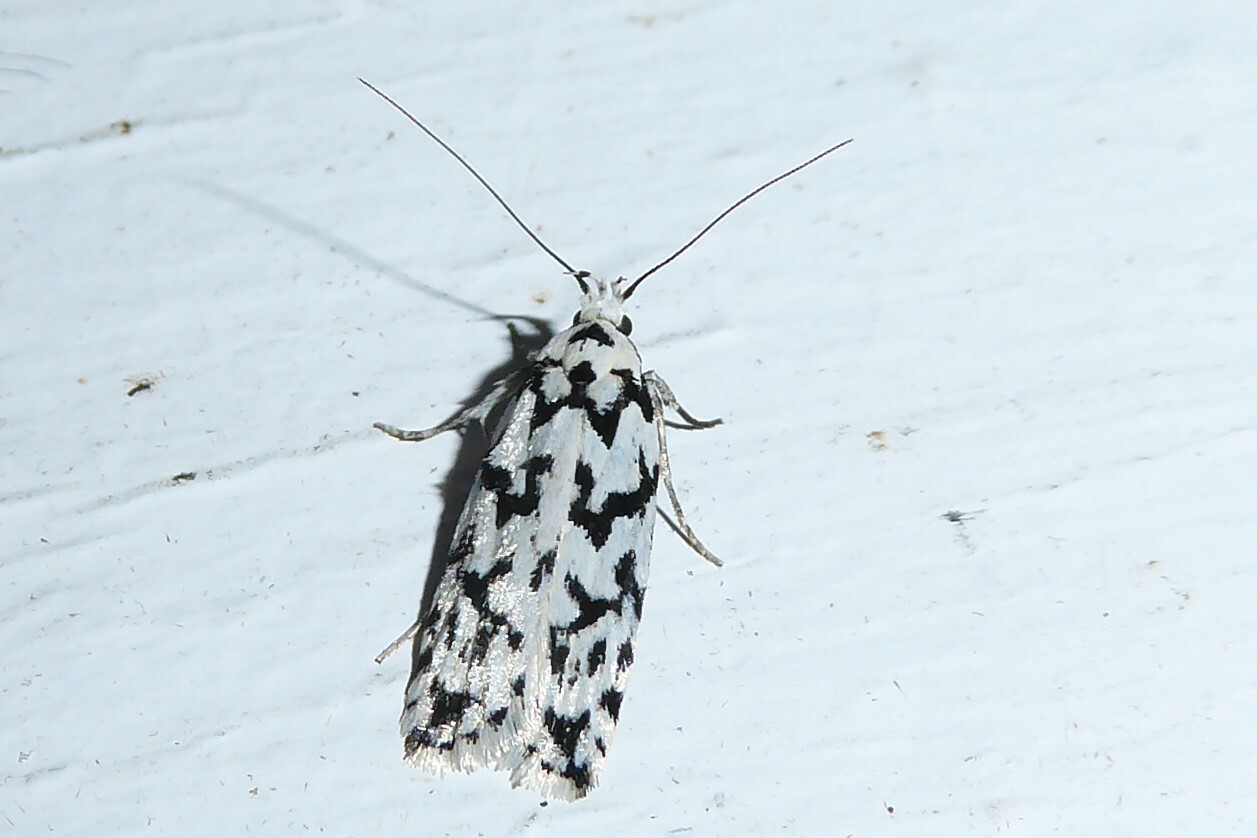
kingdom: Animalia
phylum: Arthropoda
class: Insecta
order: Lepidoptera
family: Oecophoridae
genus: Izatha
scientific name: Izatha katadiktya
